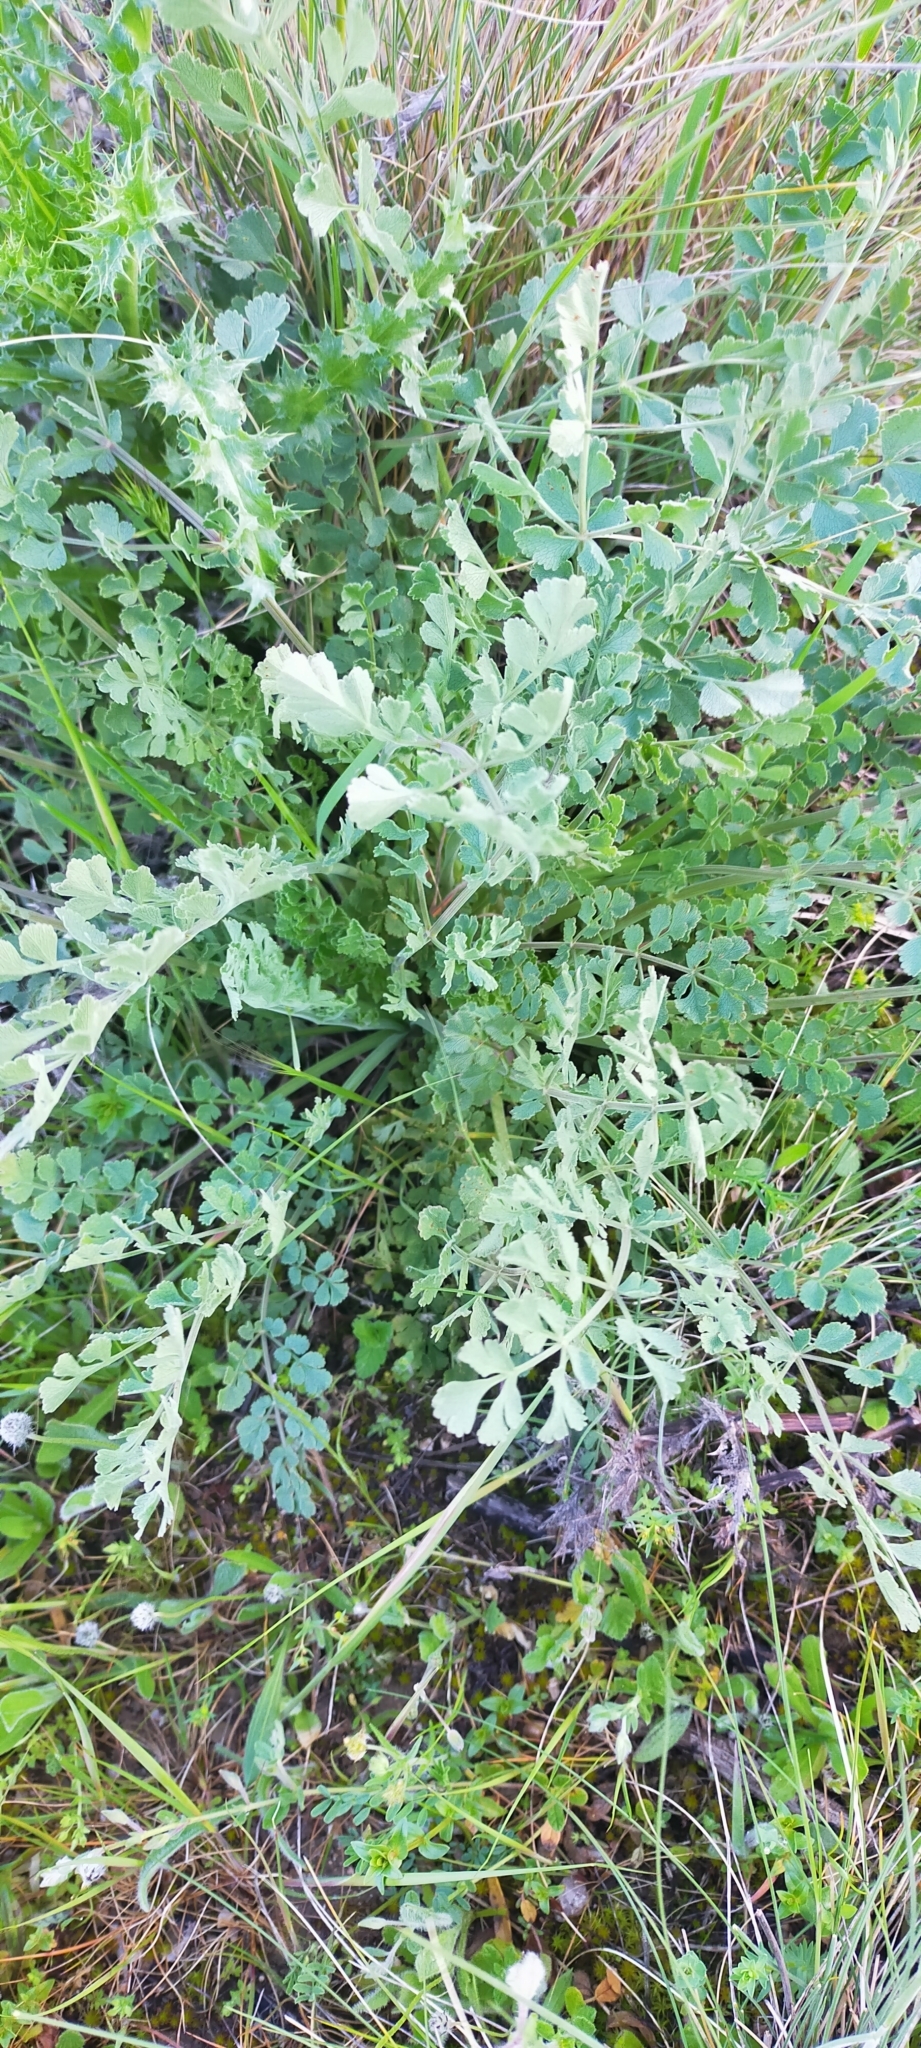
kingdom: Plantae
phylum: Tracheophyta
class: Magnoliopsida
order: Apiales
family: Apiaceae
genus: Pimpinella
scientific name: Pimpinella villosa
